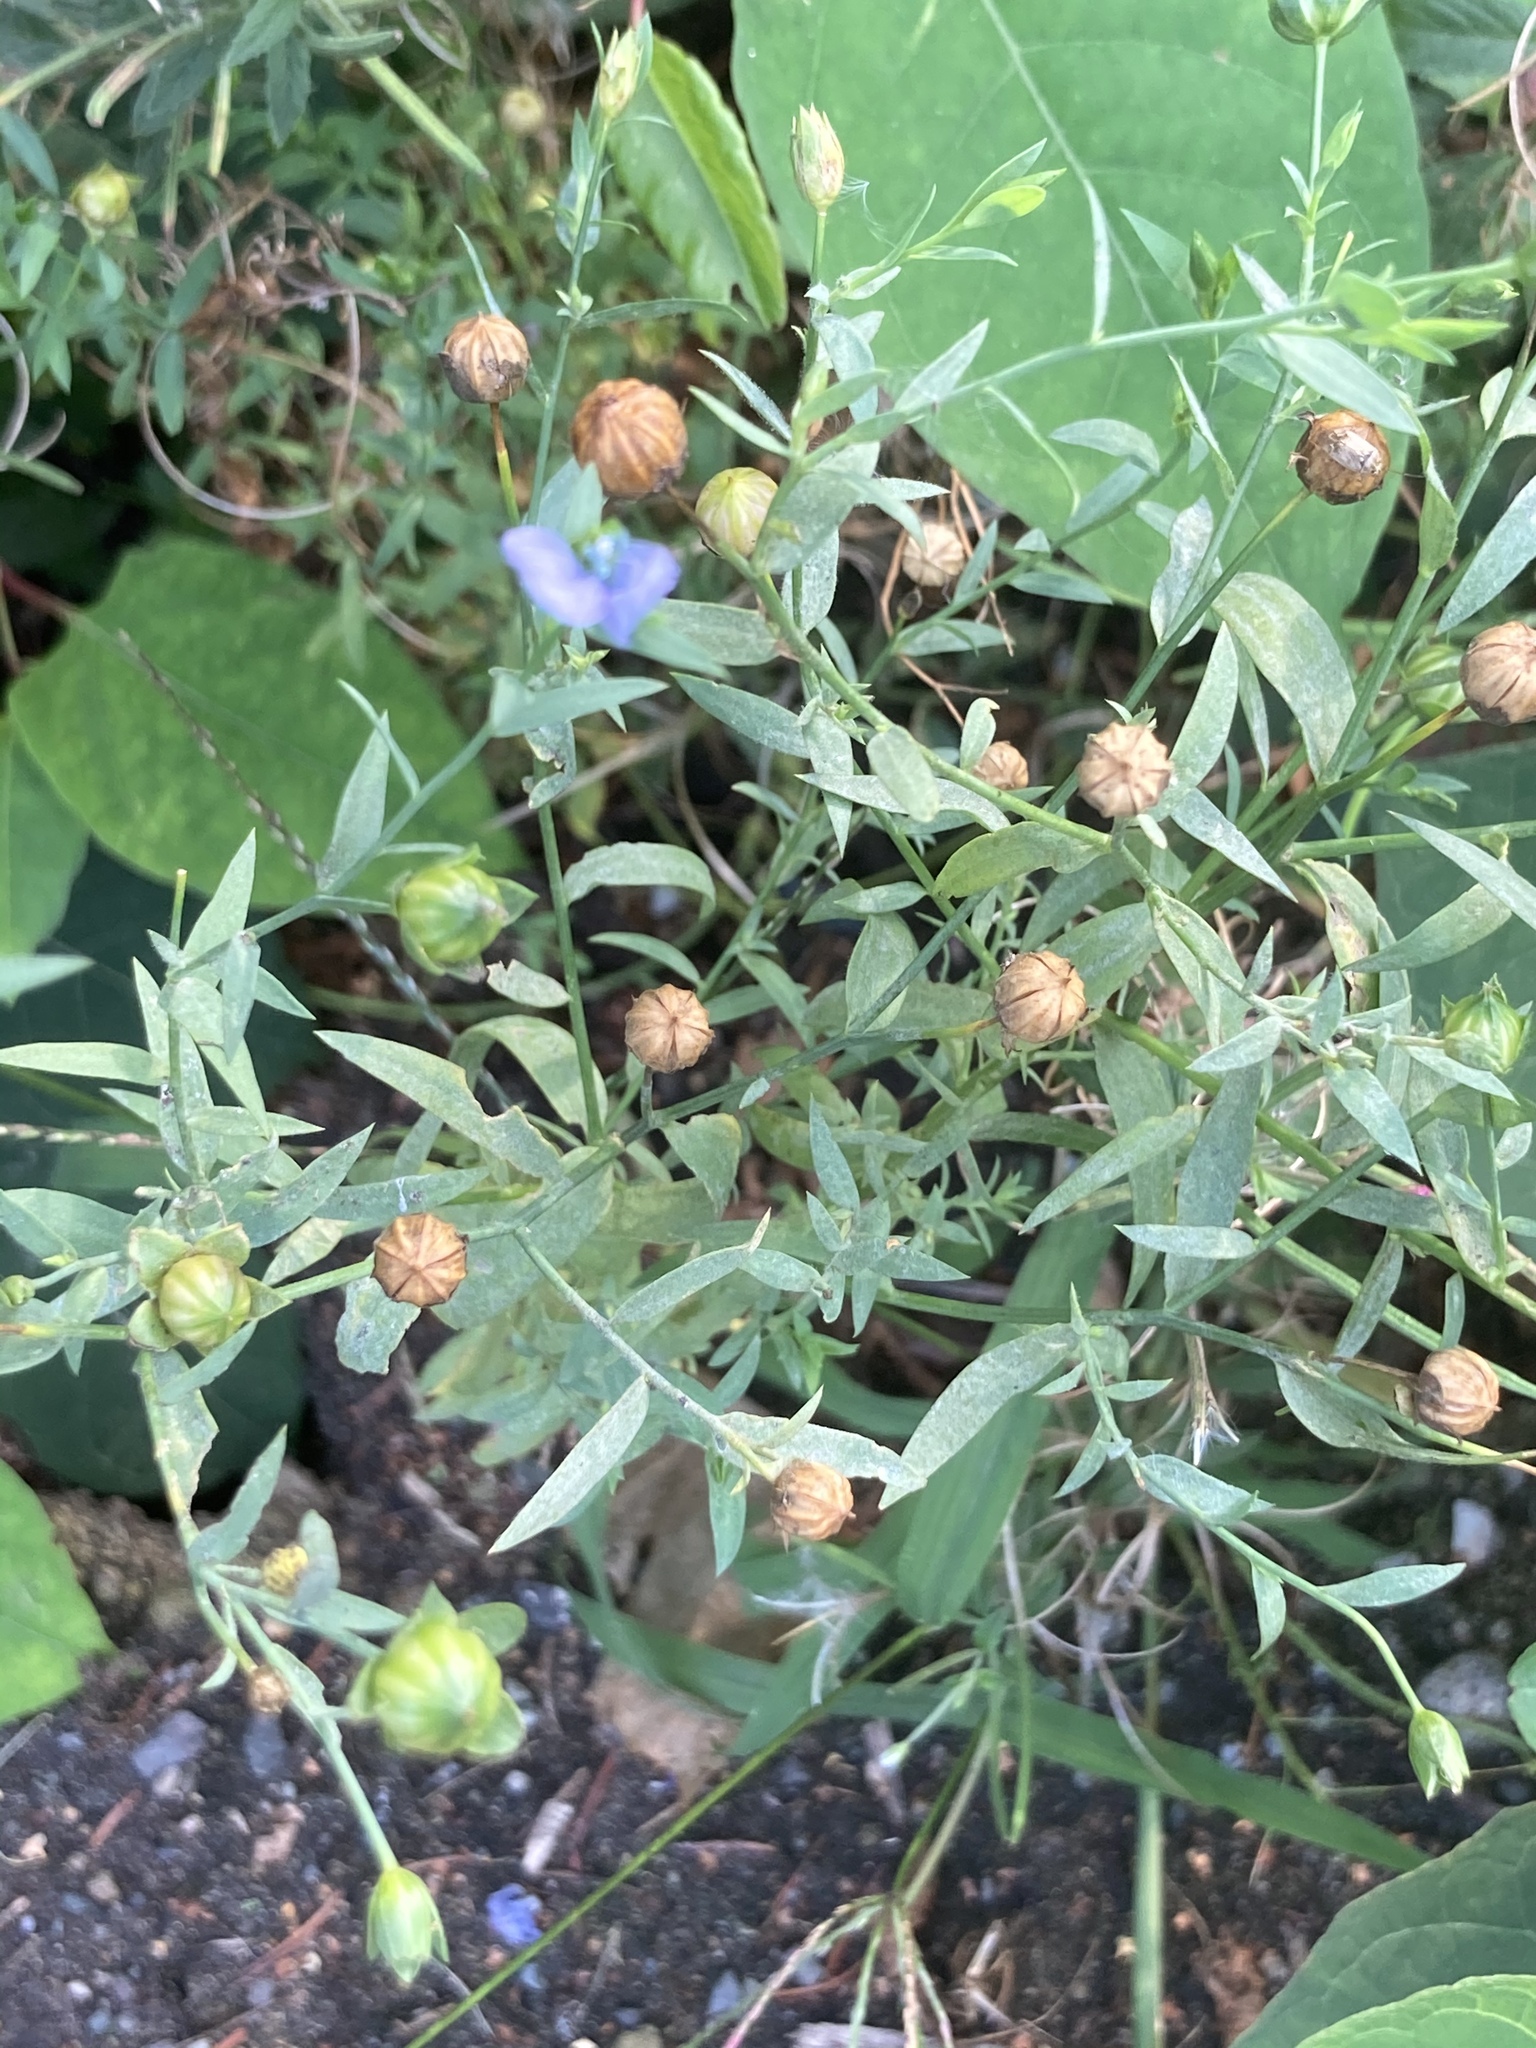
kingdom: Plantae
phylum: Tracheophyta
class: Magnoliopsida
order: Malpighiales
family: Linaceae
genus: Linum
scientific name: Linum usitatissimum
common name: Flax
